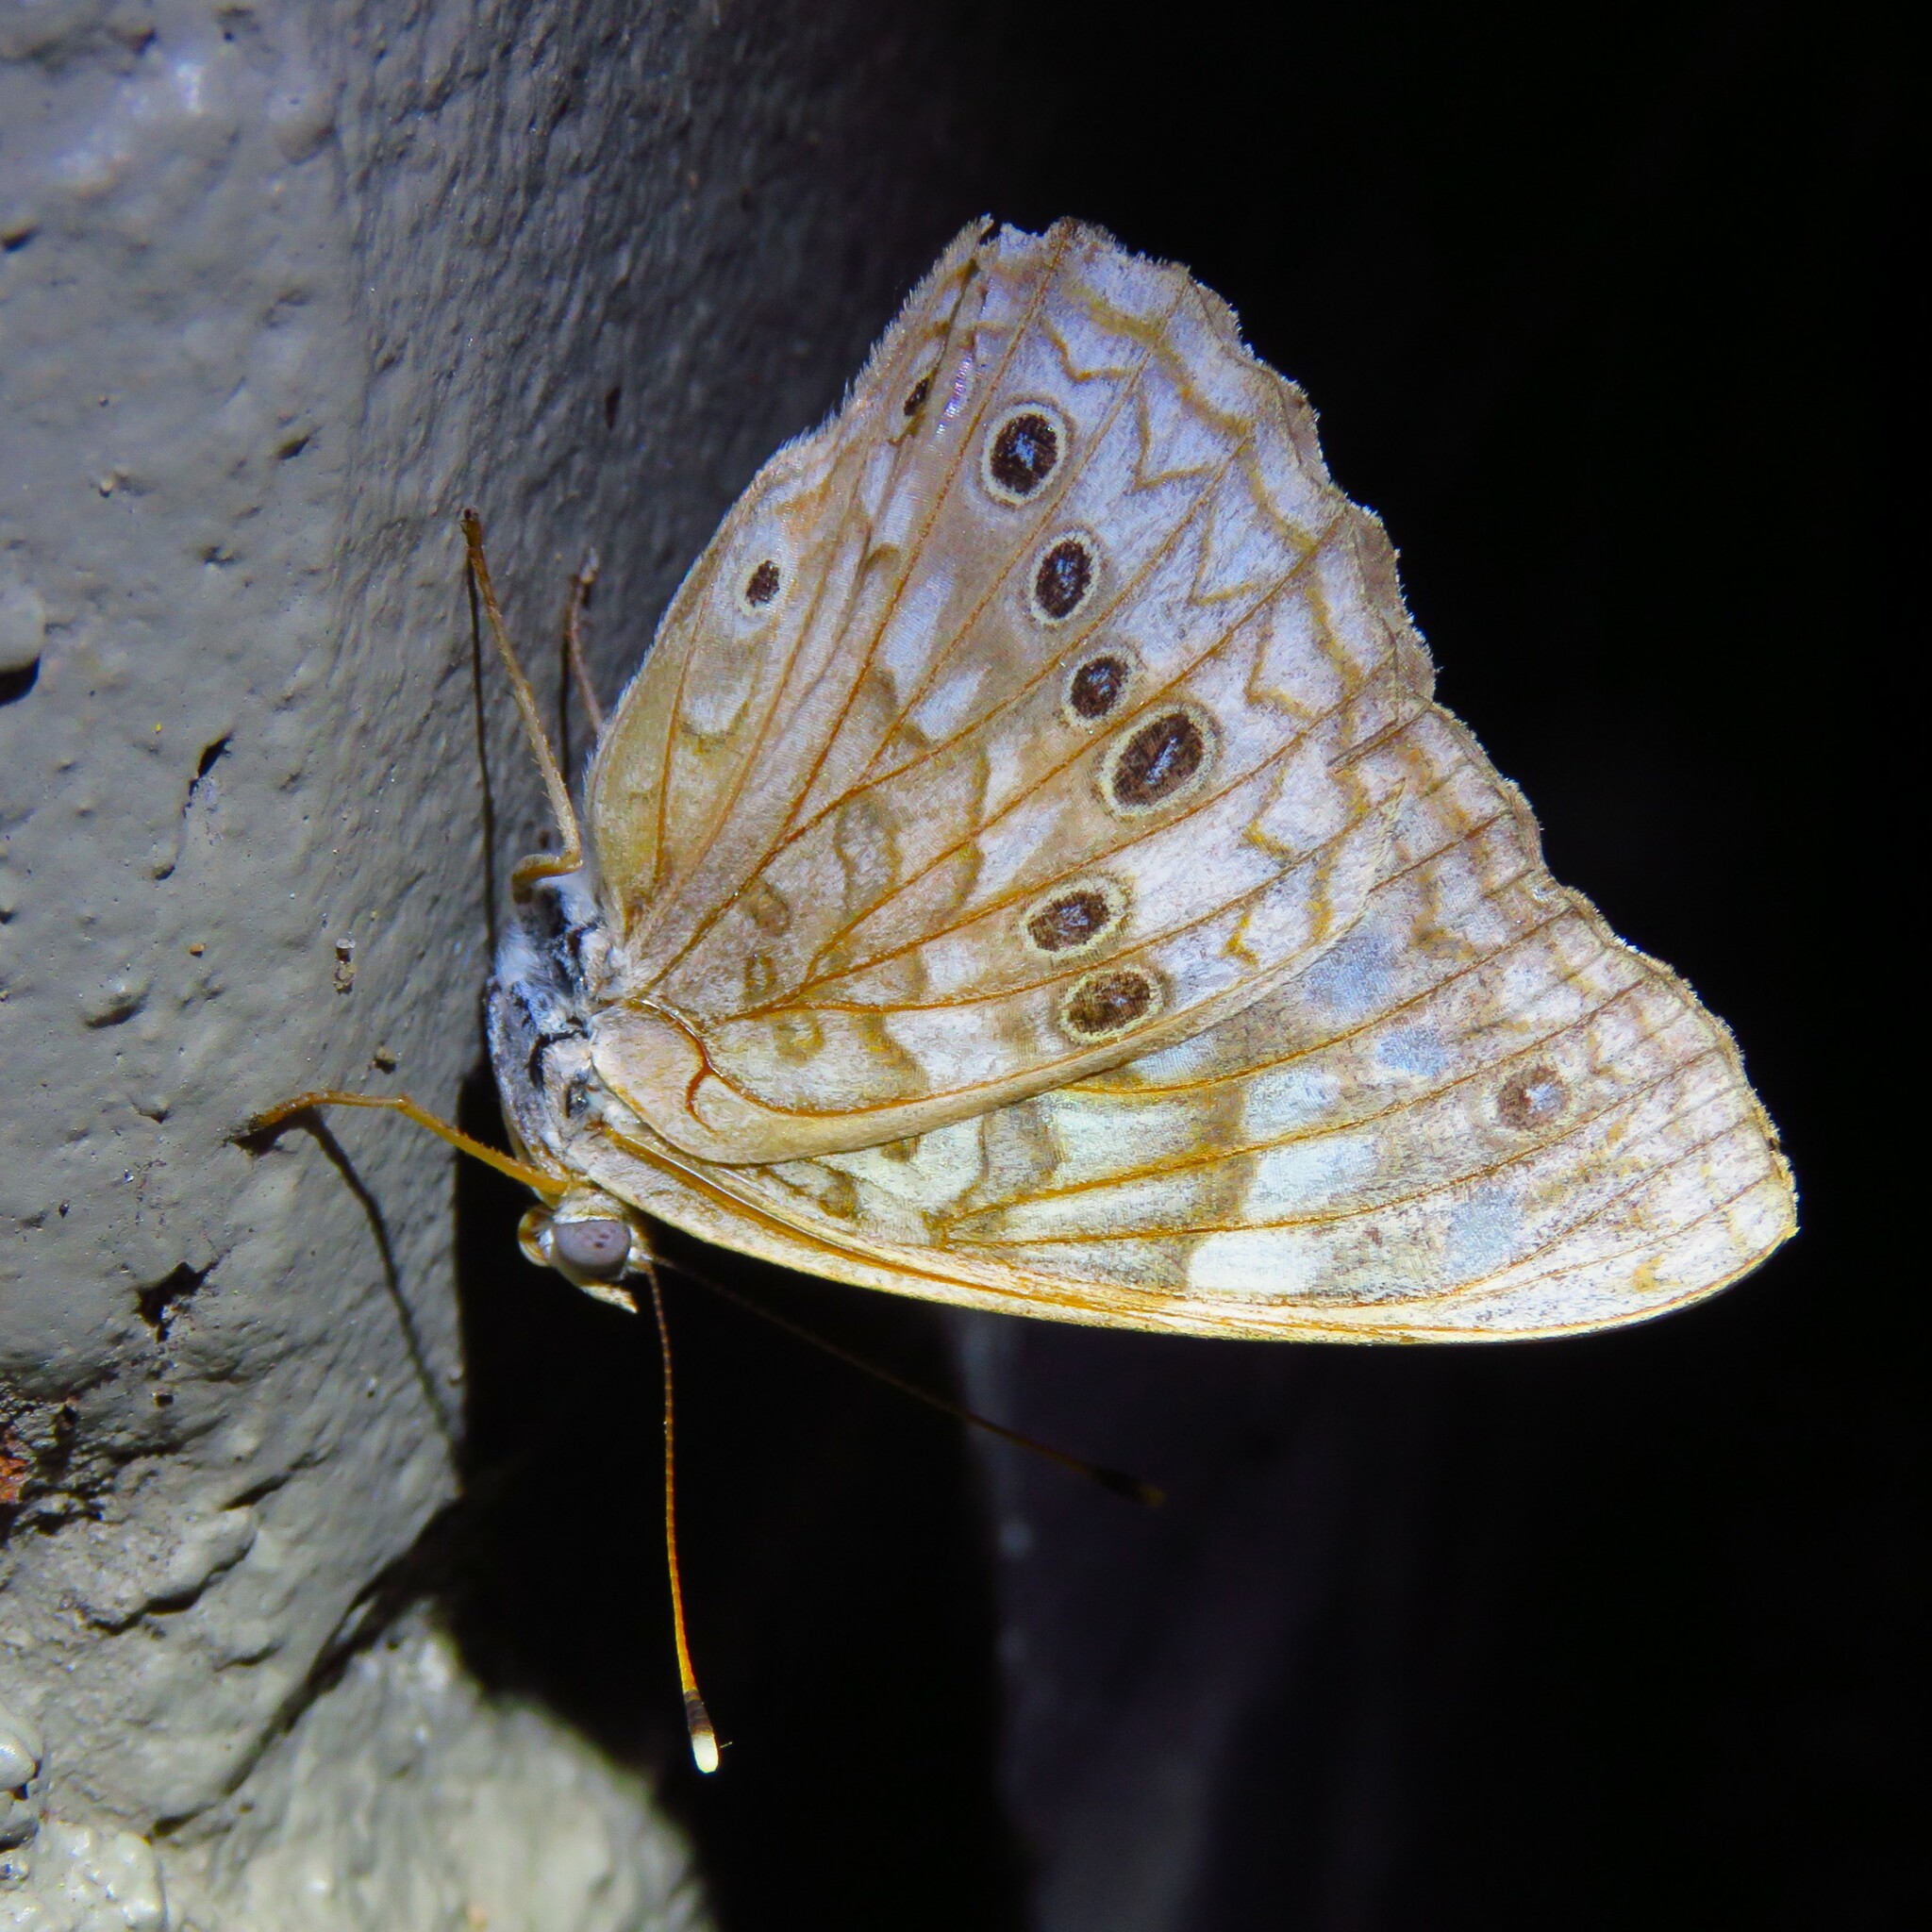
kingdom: Animalia
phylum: Arthropoda
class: Insecta
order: Lepidoptera
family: Nymphalidae
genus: Asterocampa
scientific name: Asterocampa celtis
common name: Hackberry emperor
